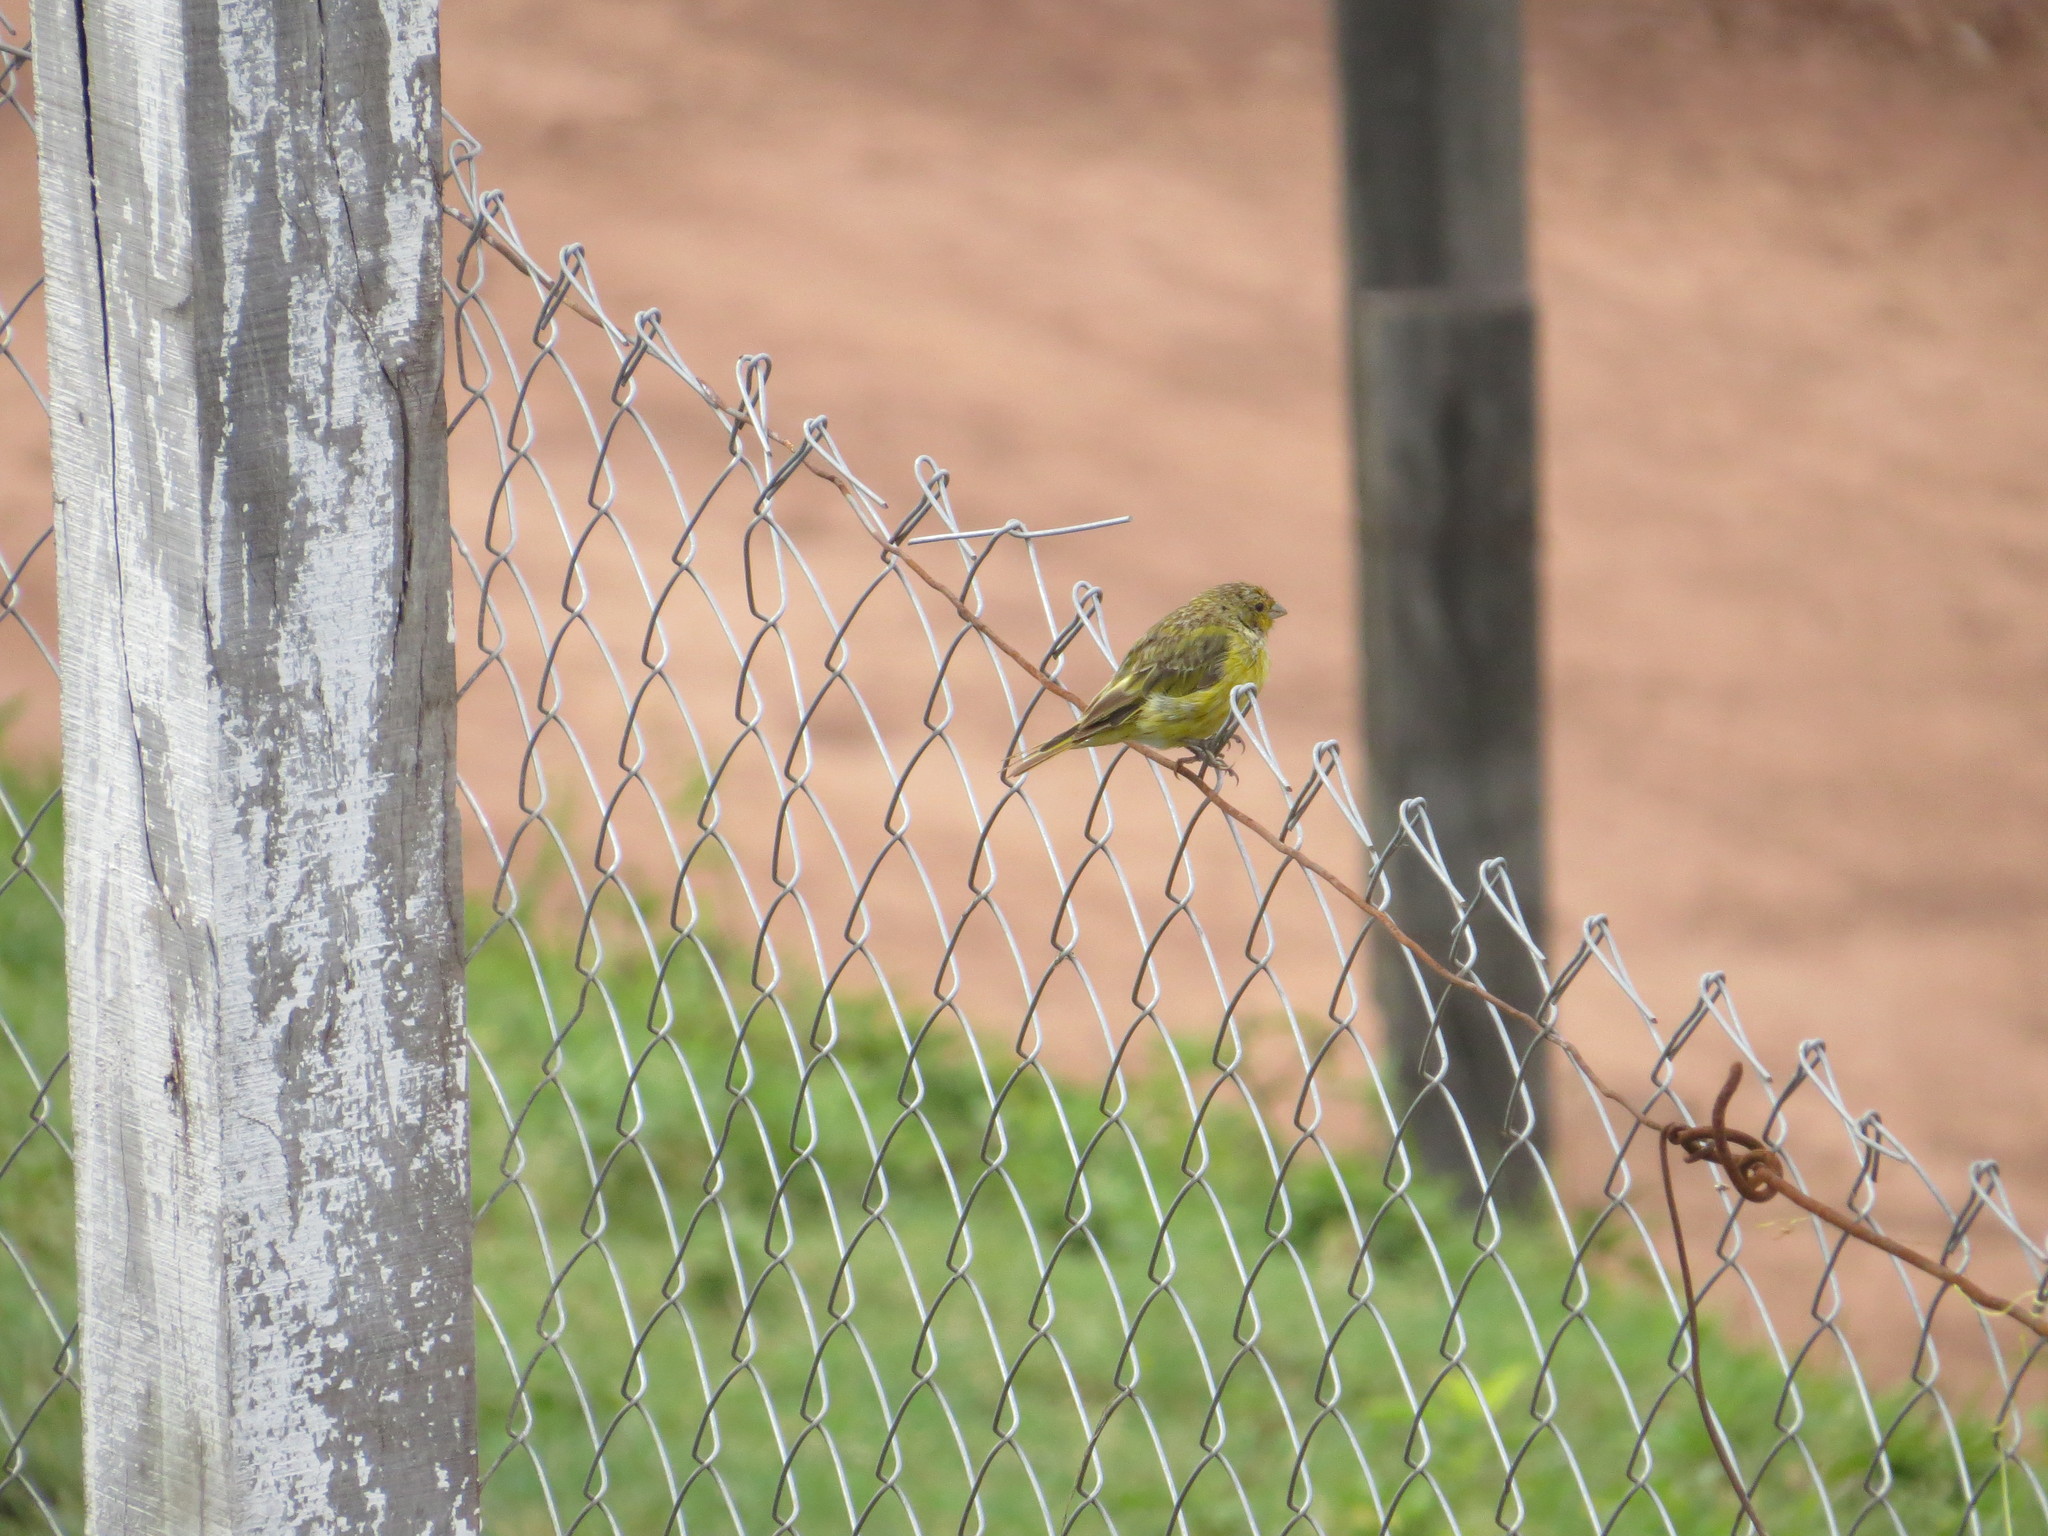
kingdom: Animalia
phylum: Chordata
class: Aves
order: Passeriformes
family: Thraupidae
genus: Sicalis
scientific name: Sicalis flaveola
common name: Saffron finch
